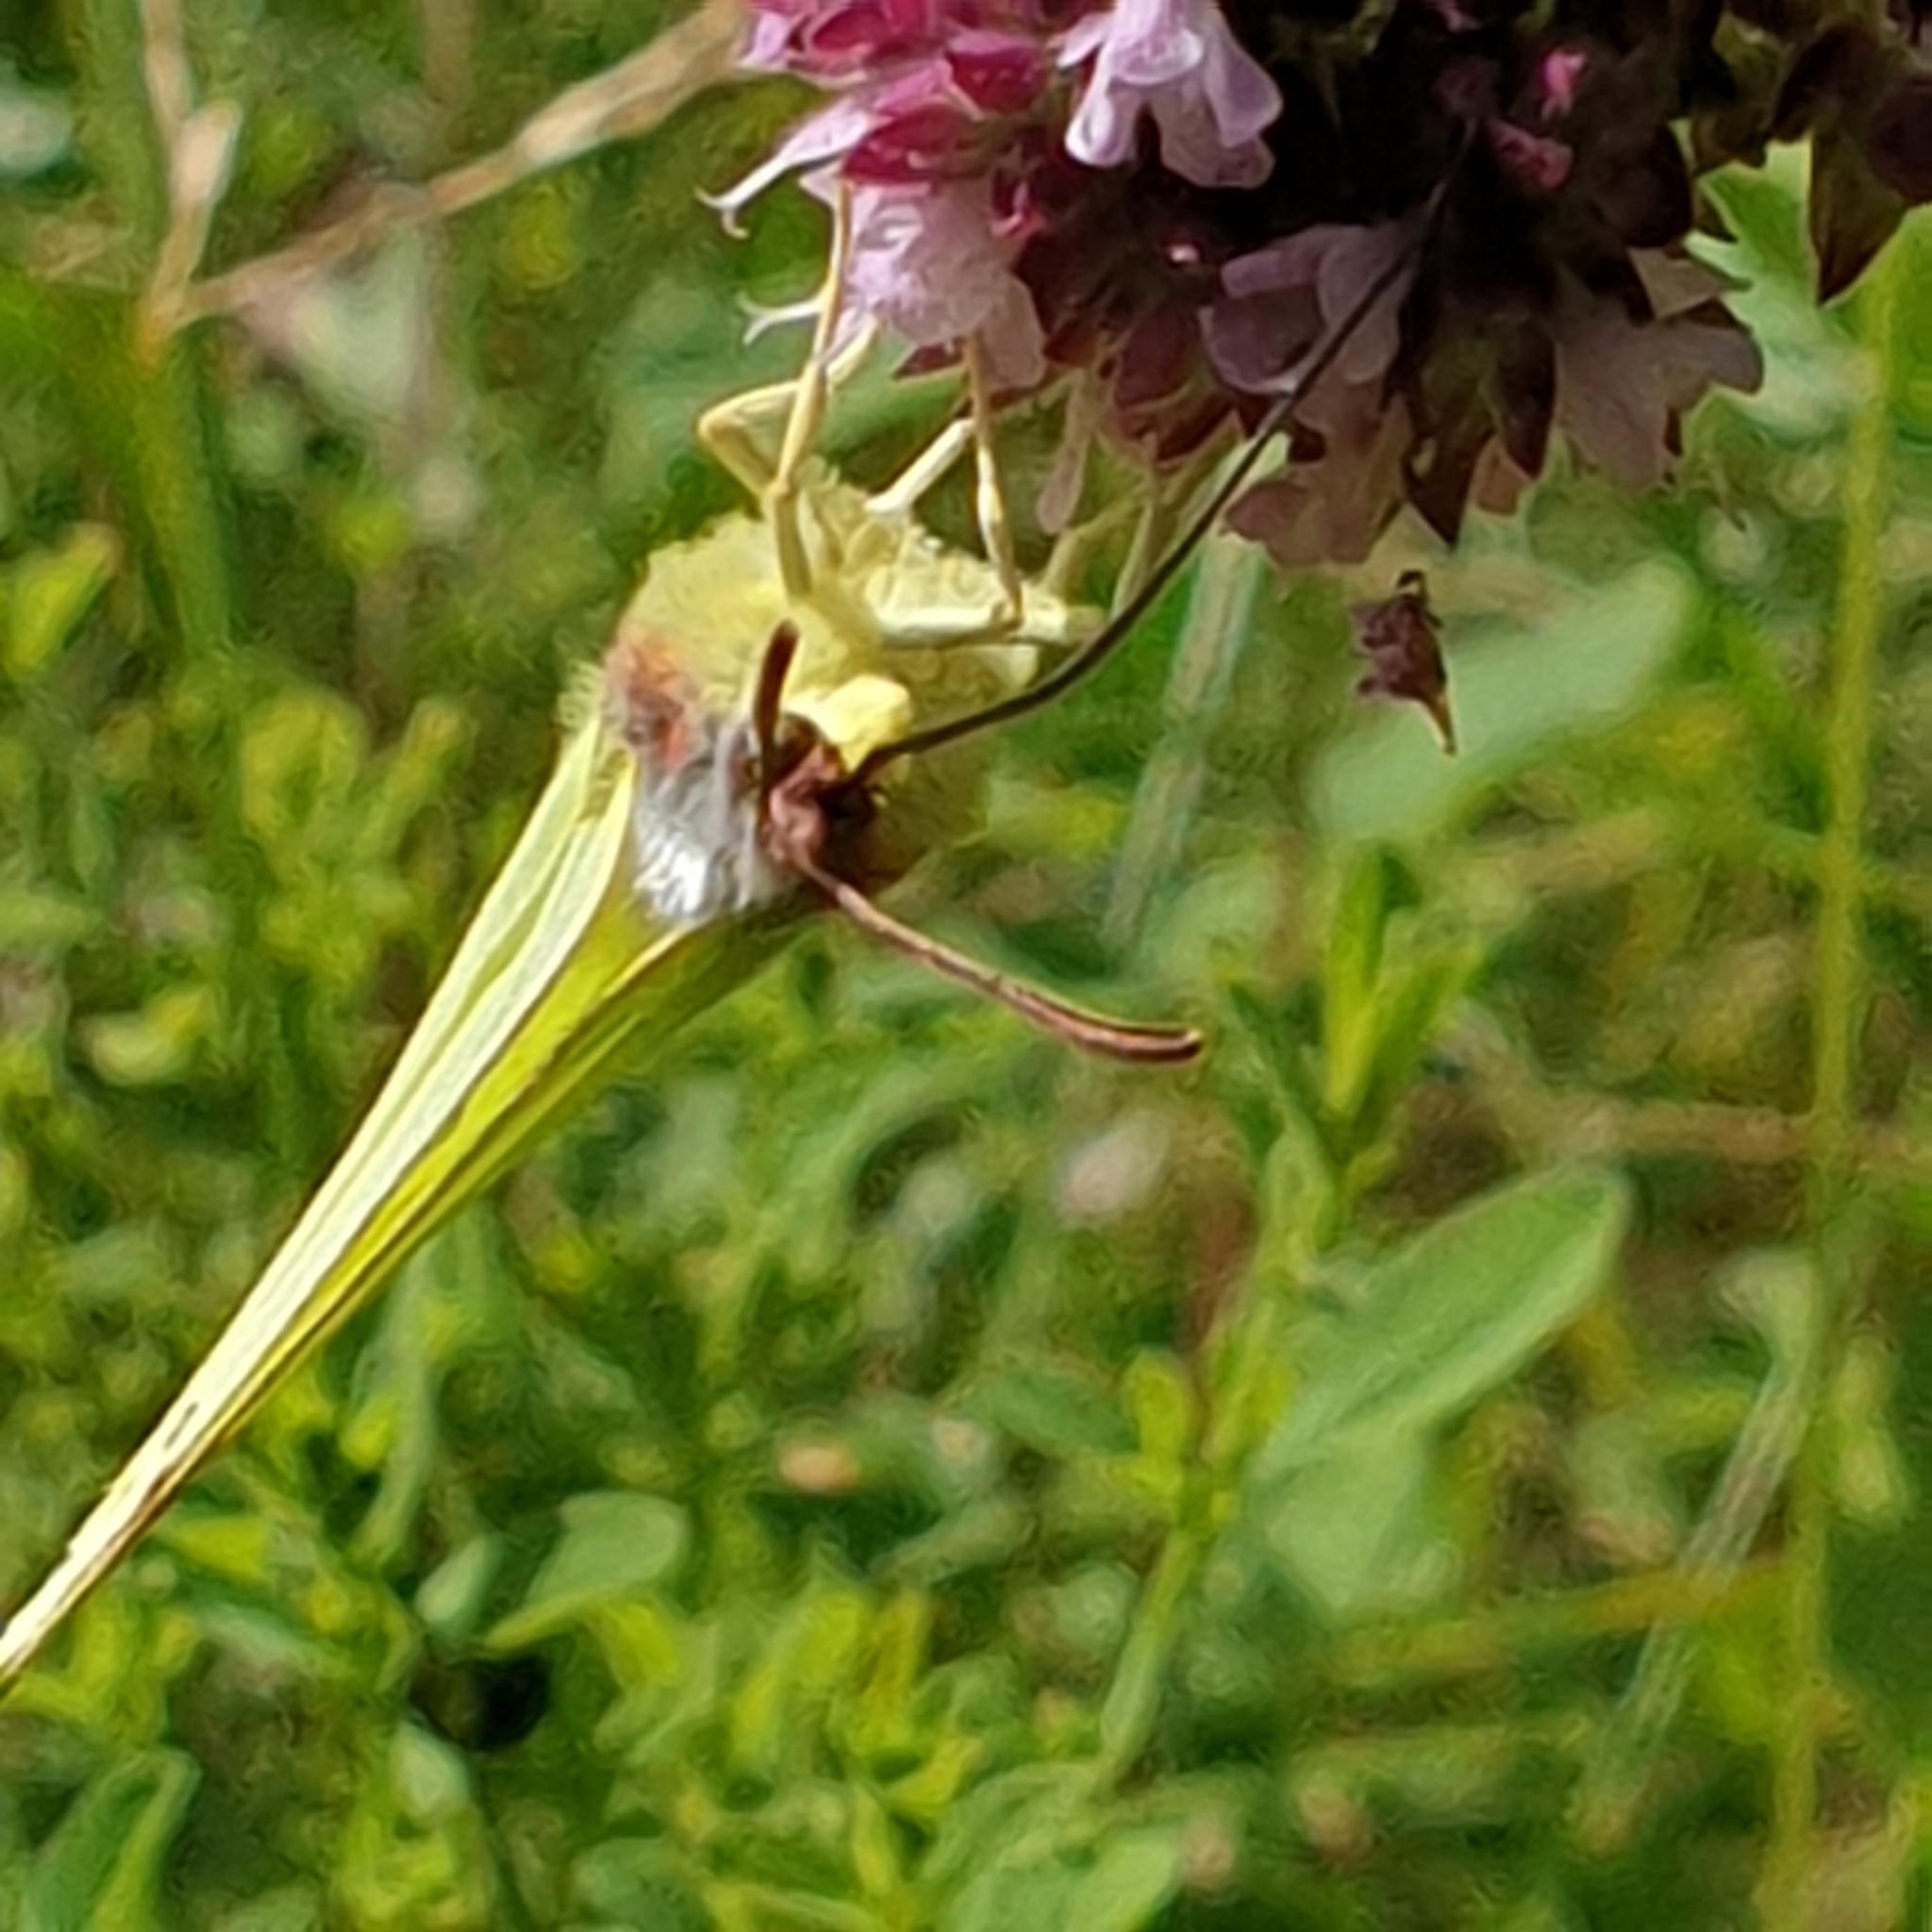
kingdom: Animalia
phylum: Arthropoda
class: Insecta
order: Lepidoptera
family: Pieridae
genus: Gonepteryx
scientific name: Gonepteryx rhamni
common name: Brimstone
